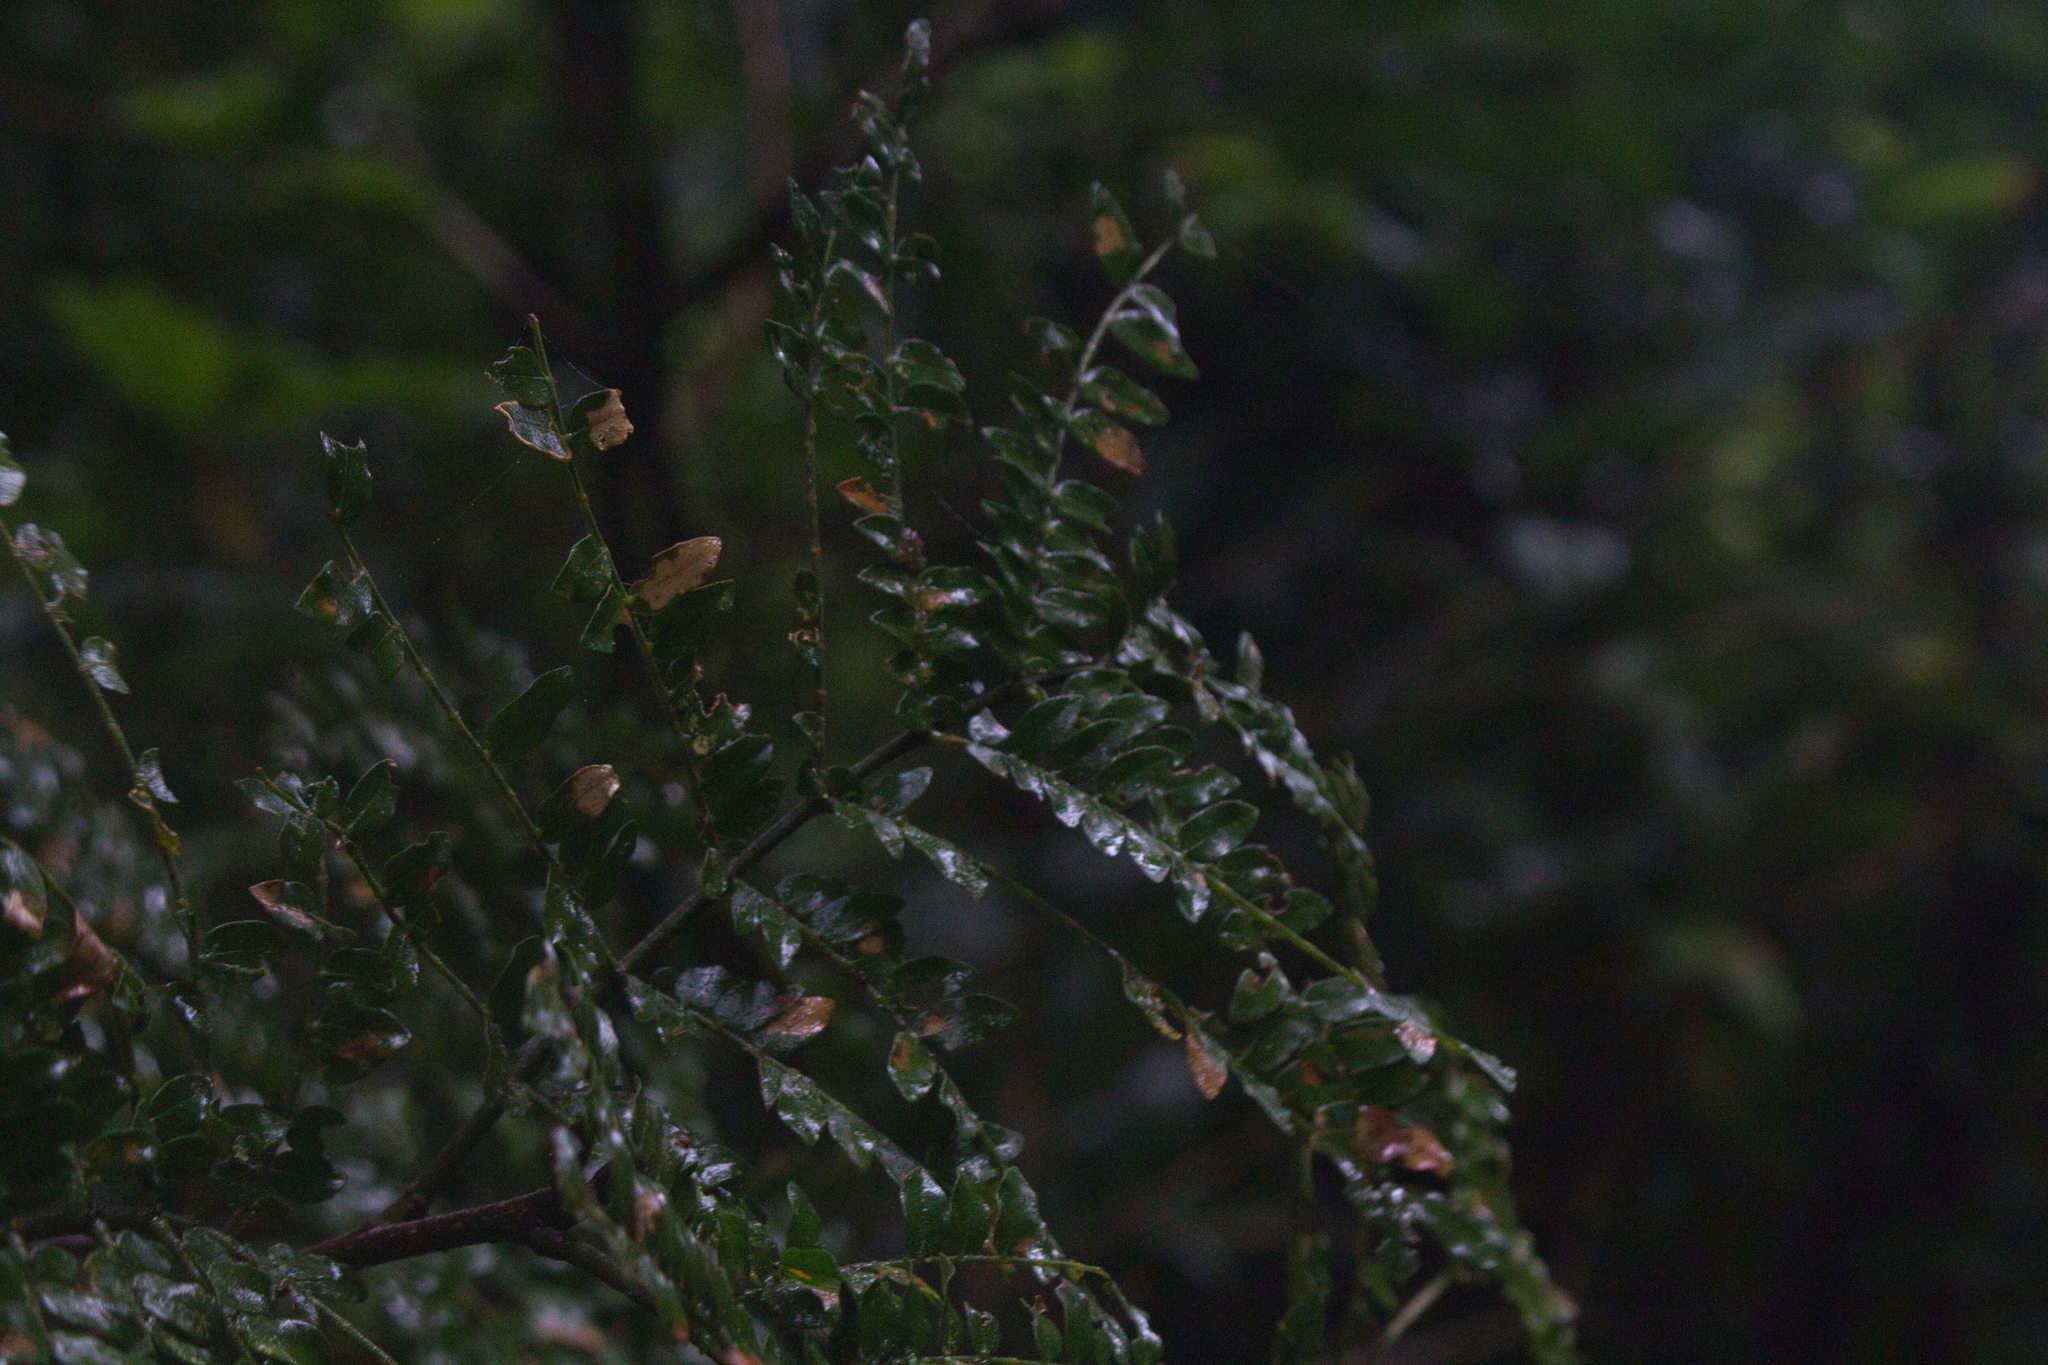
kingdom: Plantae
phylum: Tracheophyta
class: Magnoliopsida
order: Fabales
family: Fabaceae
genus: Cojoba
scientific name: Cojoba costaricensis
